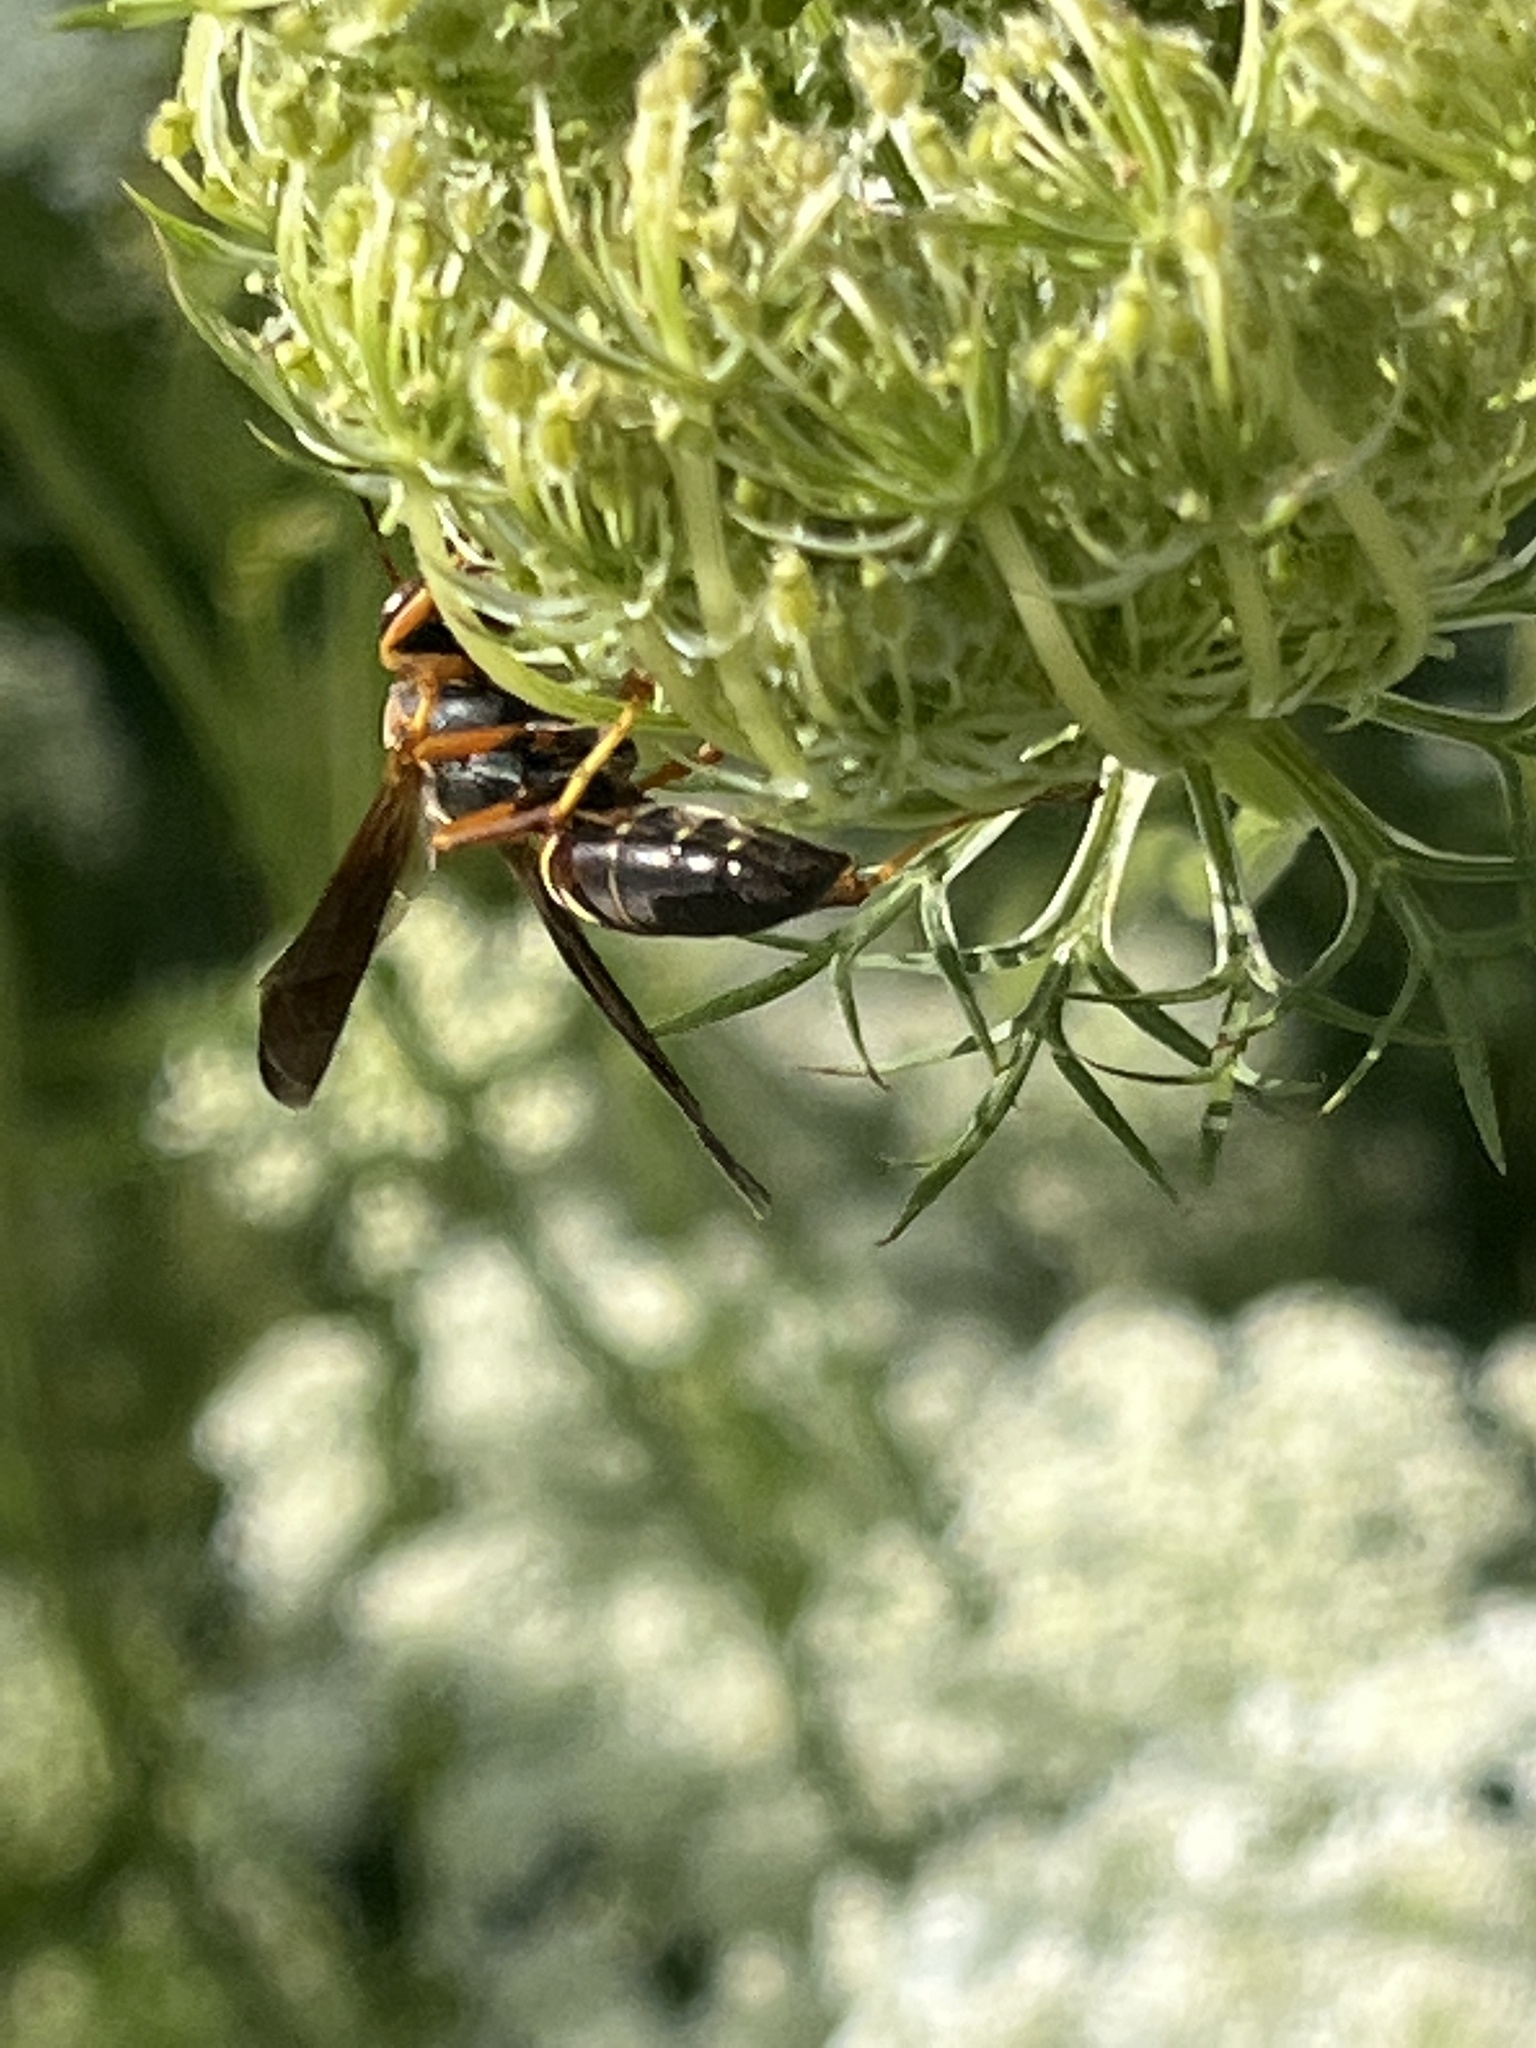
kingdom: Animalia
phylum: Arthropoda
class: Insecta
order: Hymenoptera
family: Eumenidae
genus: Polistes
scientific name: Polistes fuscatus
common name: Dark paper wasp
